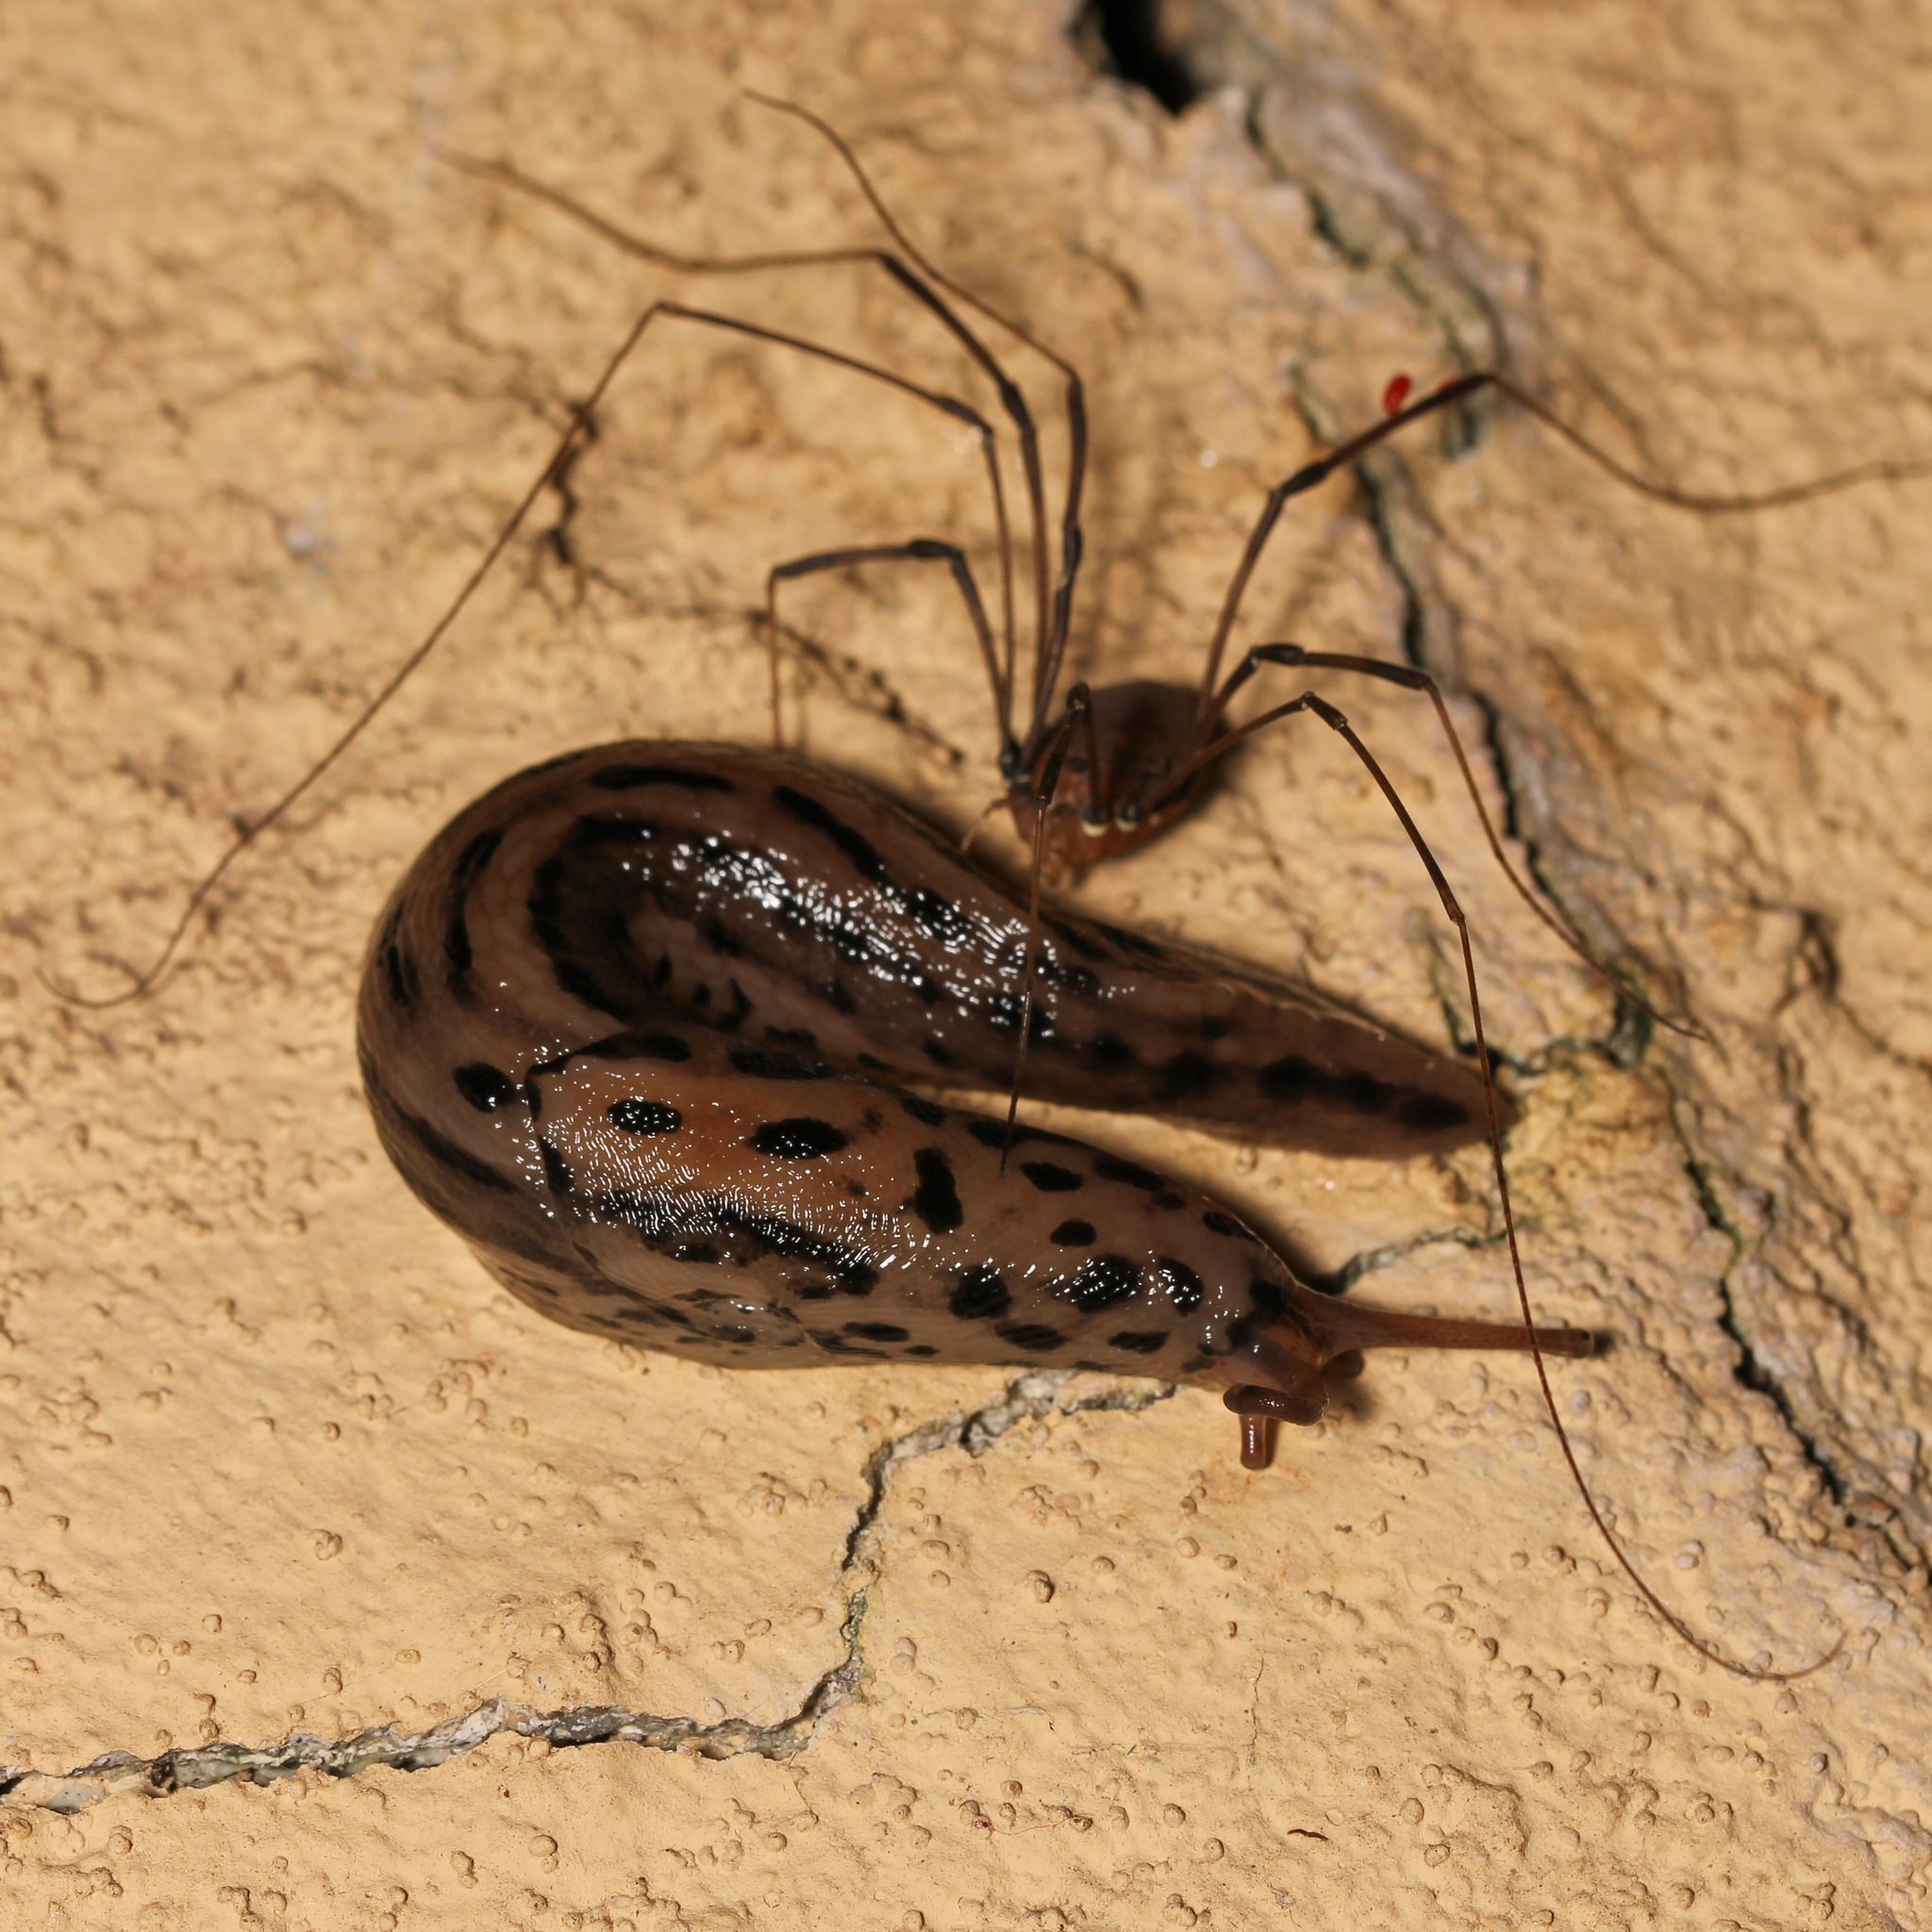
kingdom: Animalia
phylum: Mollusca
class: Gastropoda
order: Stylommatophora
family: Limacidae
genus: Limax
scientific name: Limax maximus
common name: Great grey slug
